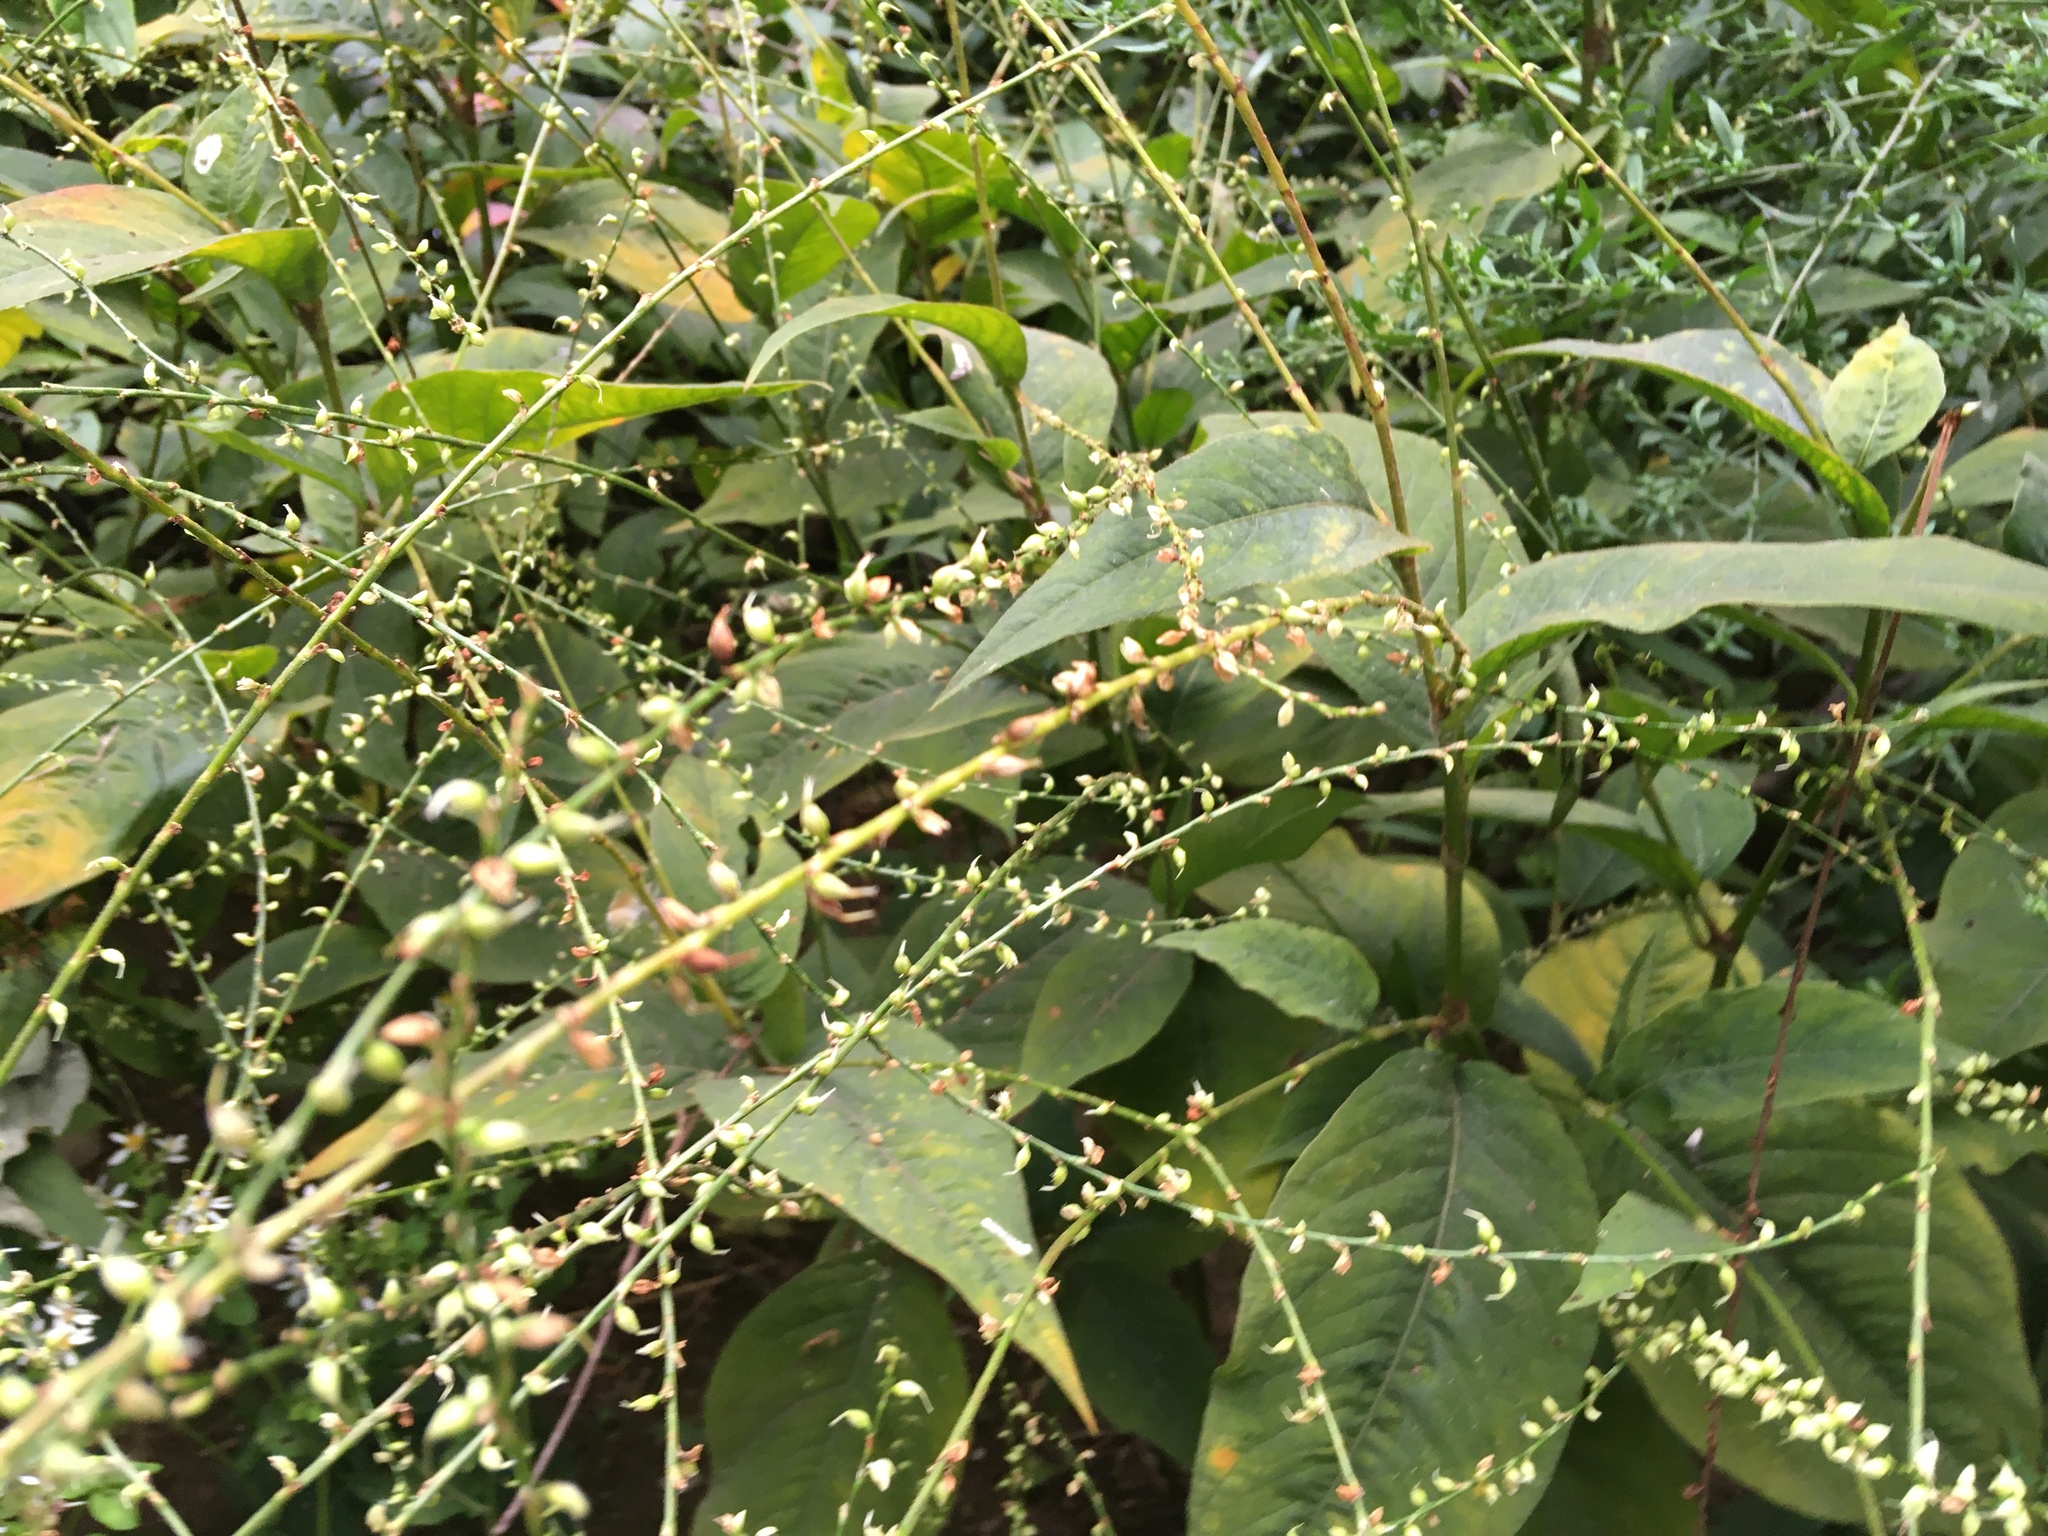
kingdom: Plantae
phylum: Tracheophyta
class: Magnoliopsida
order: Caryophyllales
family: Polygonaceae
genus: Persicaria
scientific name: Persicaria virginiana
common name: Jumpseed
